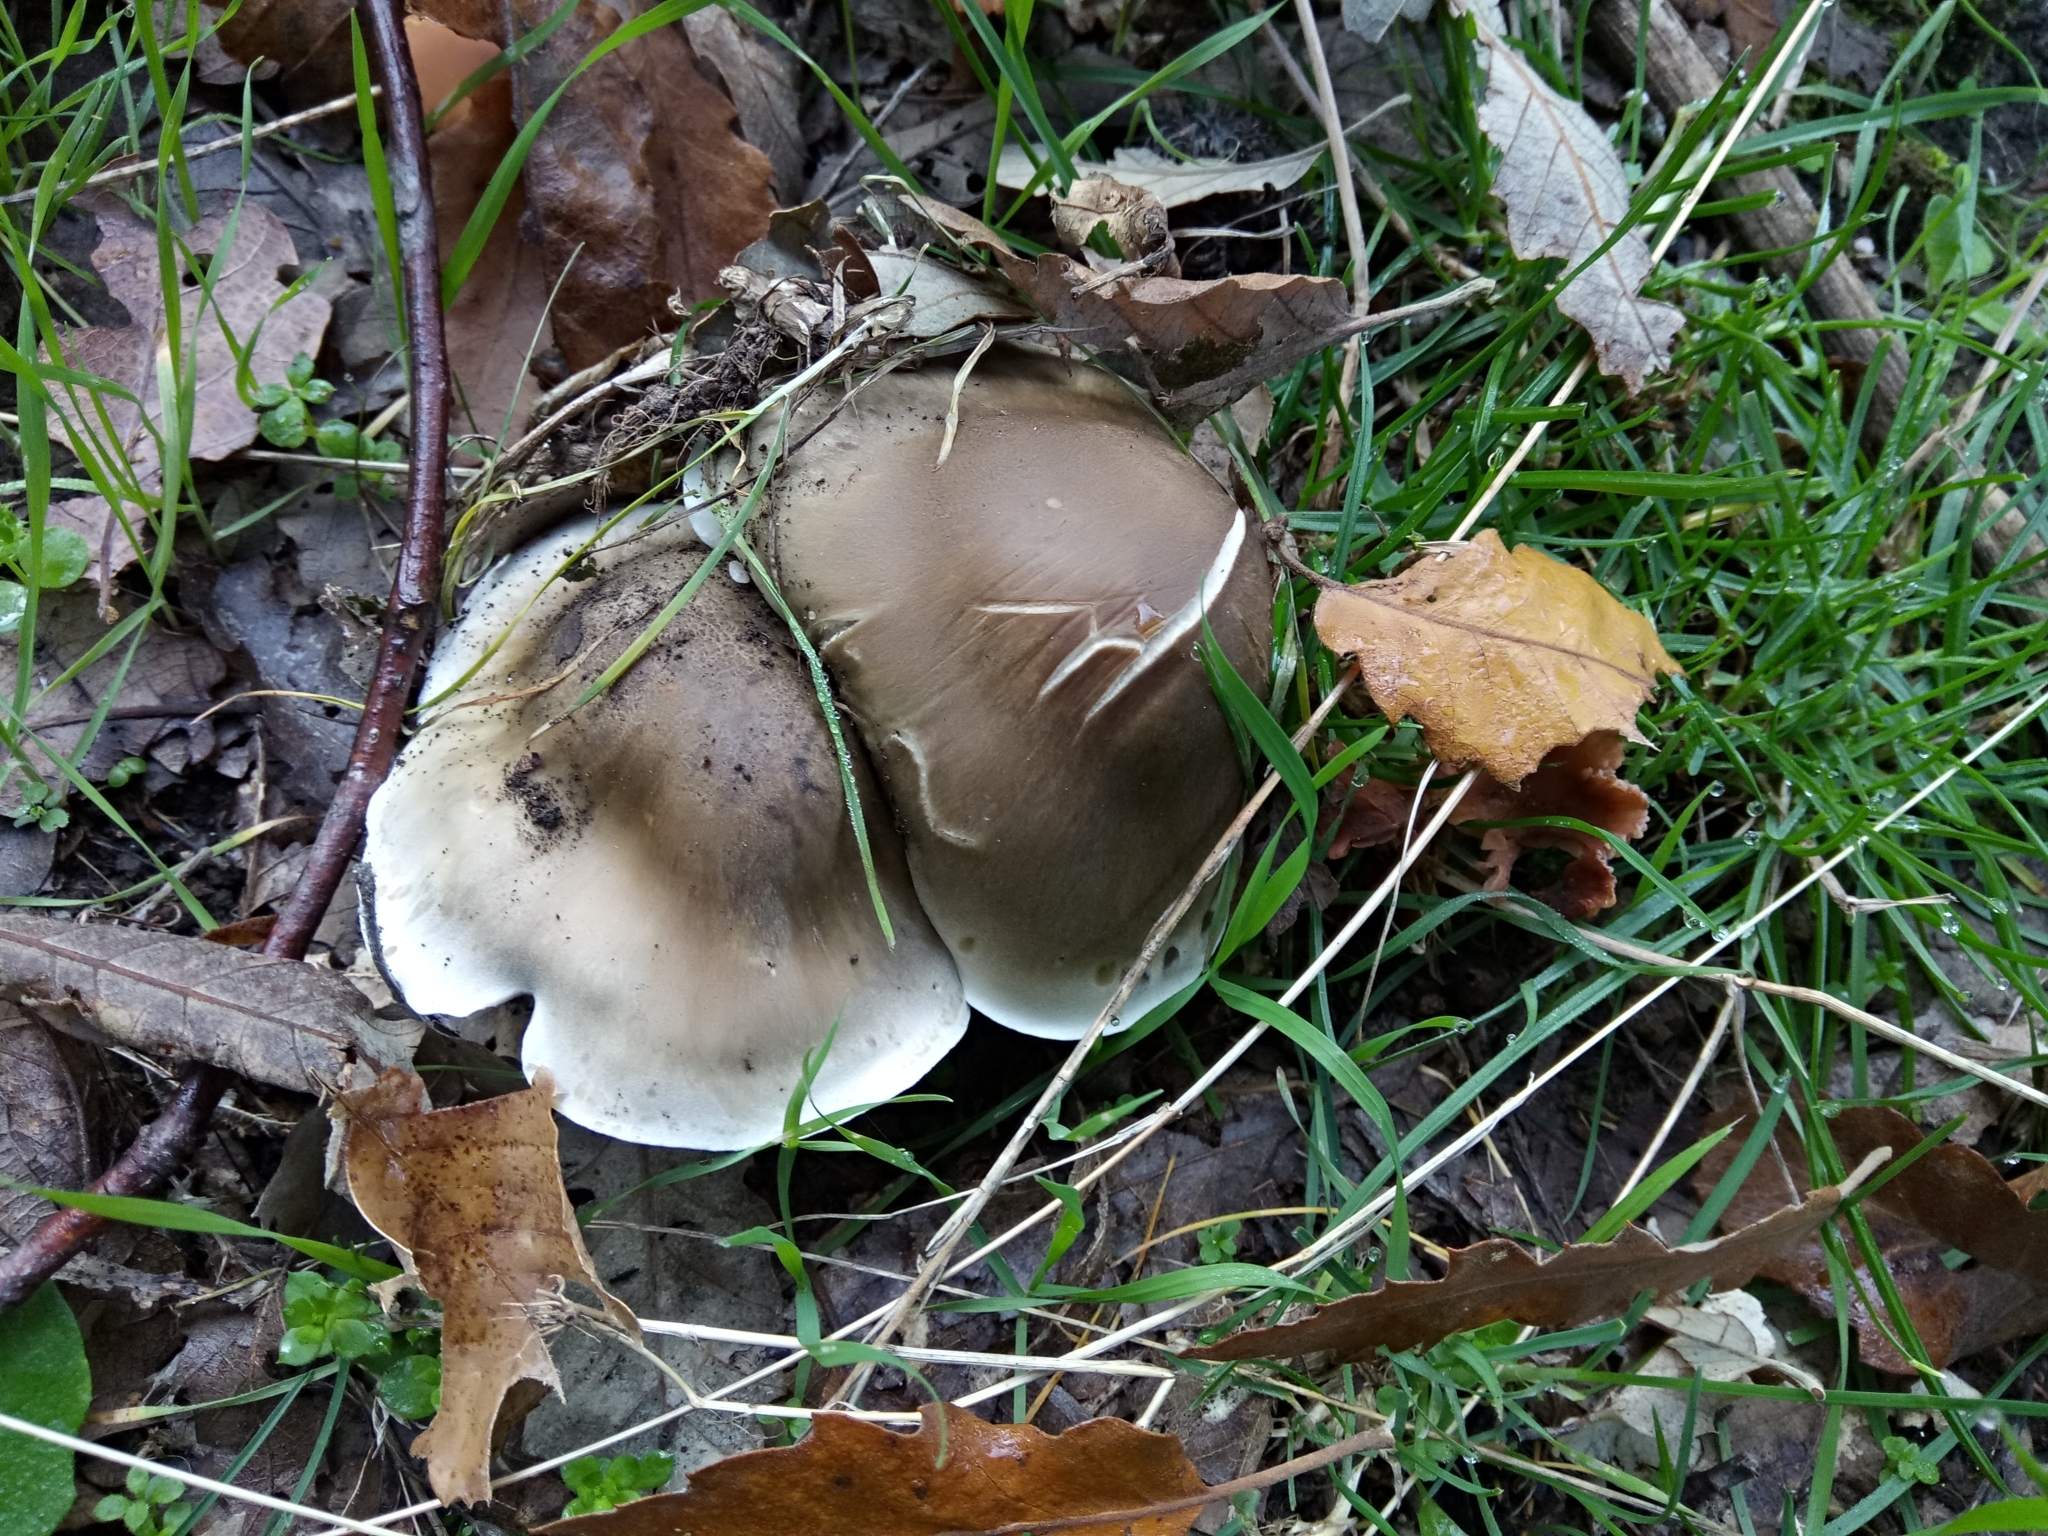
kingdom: Fungi
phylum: Basidiomycota
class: Agaricomycetes
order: Agaricales
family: Tricholomataceae
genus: Tricholoma
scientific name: Tricholoma saponaceum
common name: Soapy trich
